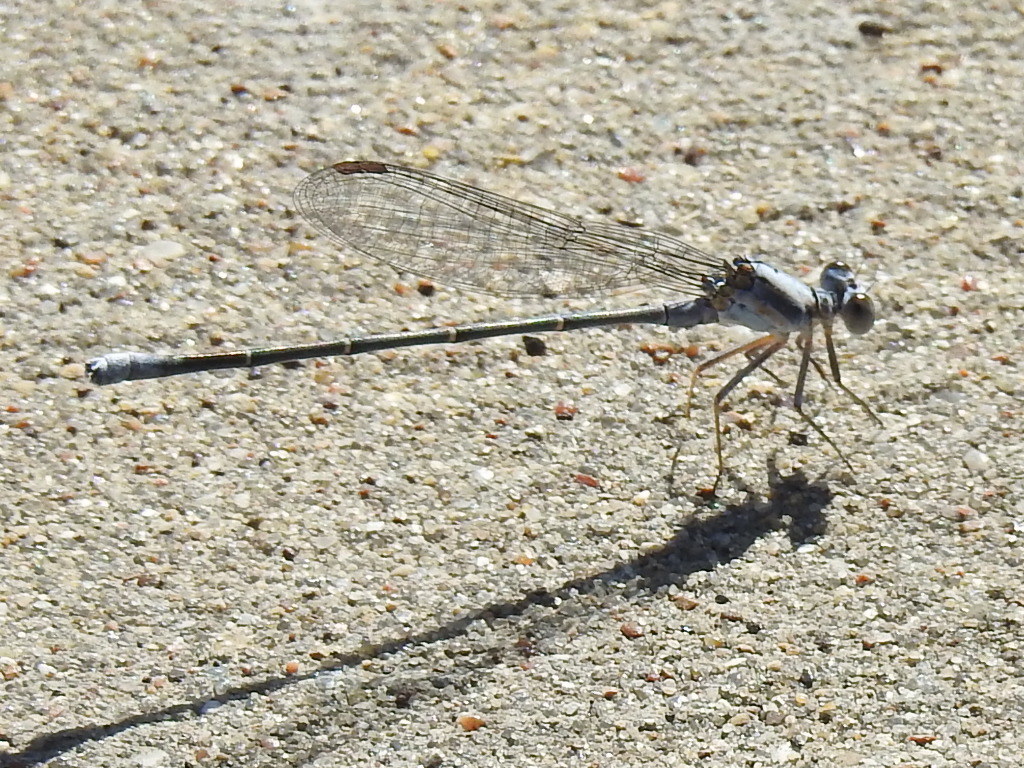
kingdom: Animalia
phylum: Arthropoda
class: Insecta
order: Odonata
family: Coenagrionidae
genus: Argia
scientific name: Argia moesta
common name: Powdered dancer
